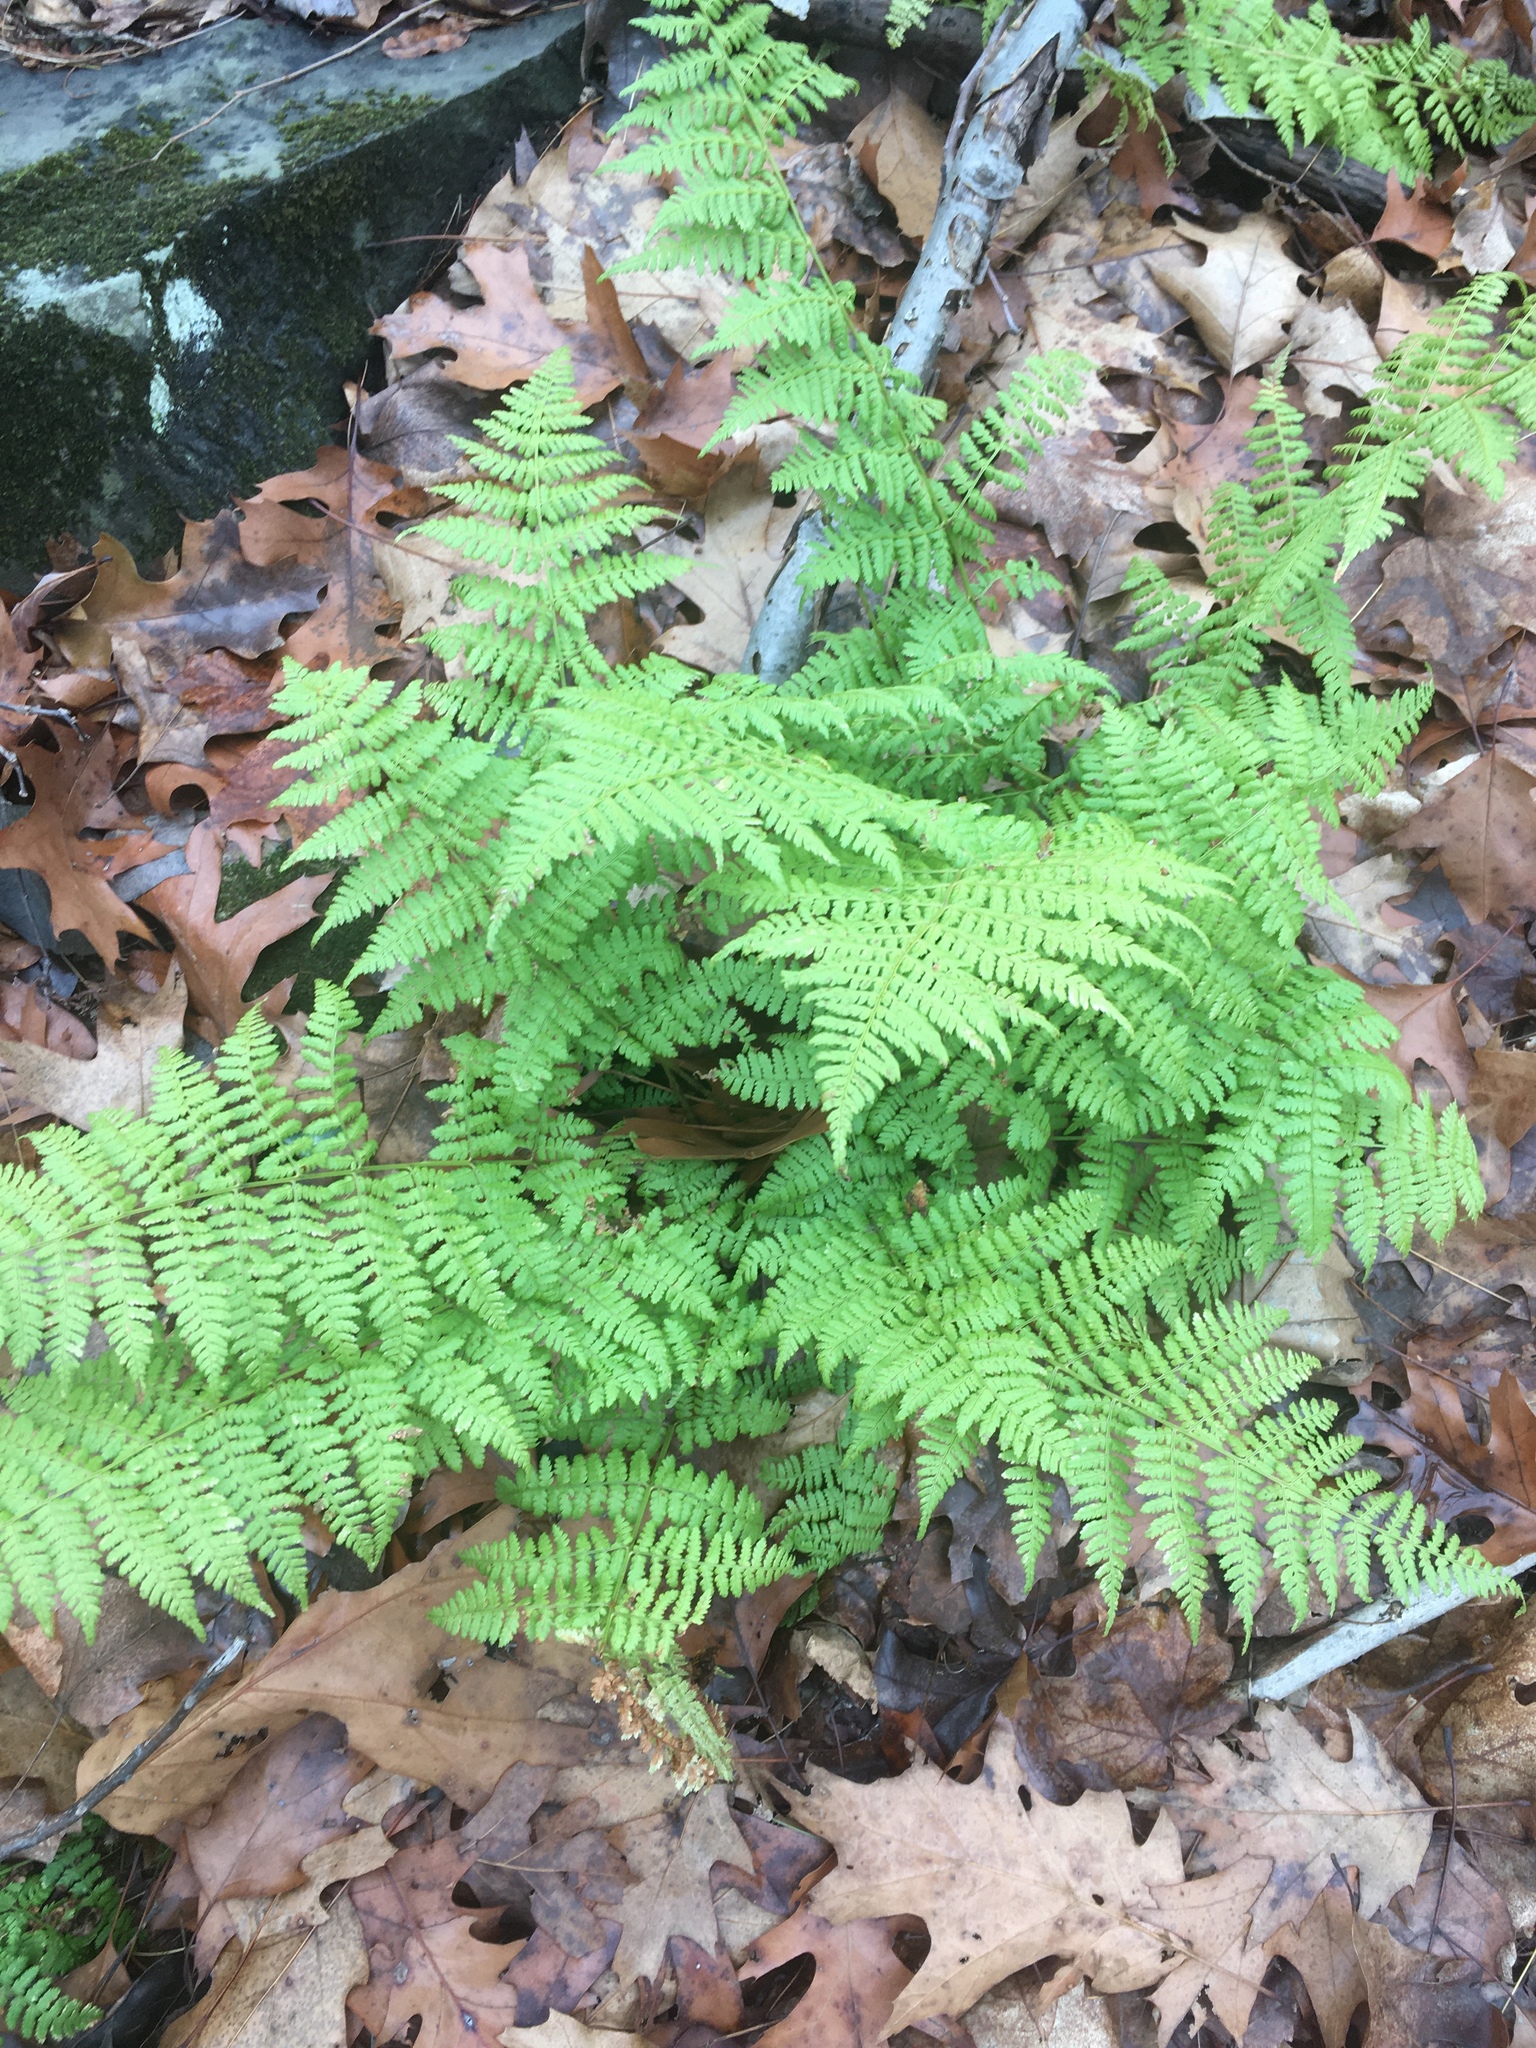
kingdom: Plantae
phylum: Tracheophyta
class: Polypodiopsida
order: Polypodiales
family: Dryopteridaceae
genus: Dryopteris
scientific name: Dryopteris intermedia
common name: Evergreen wood fern
